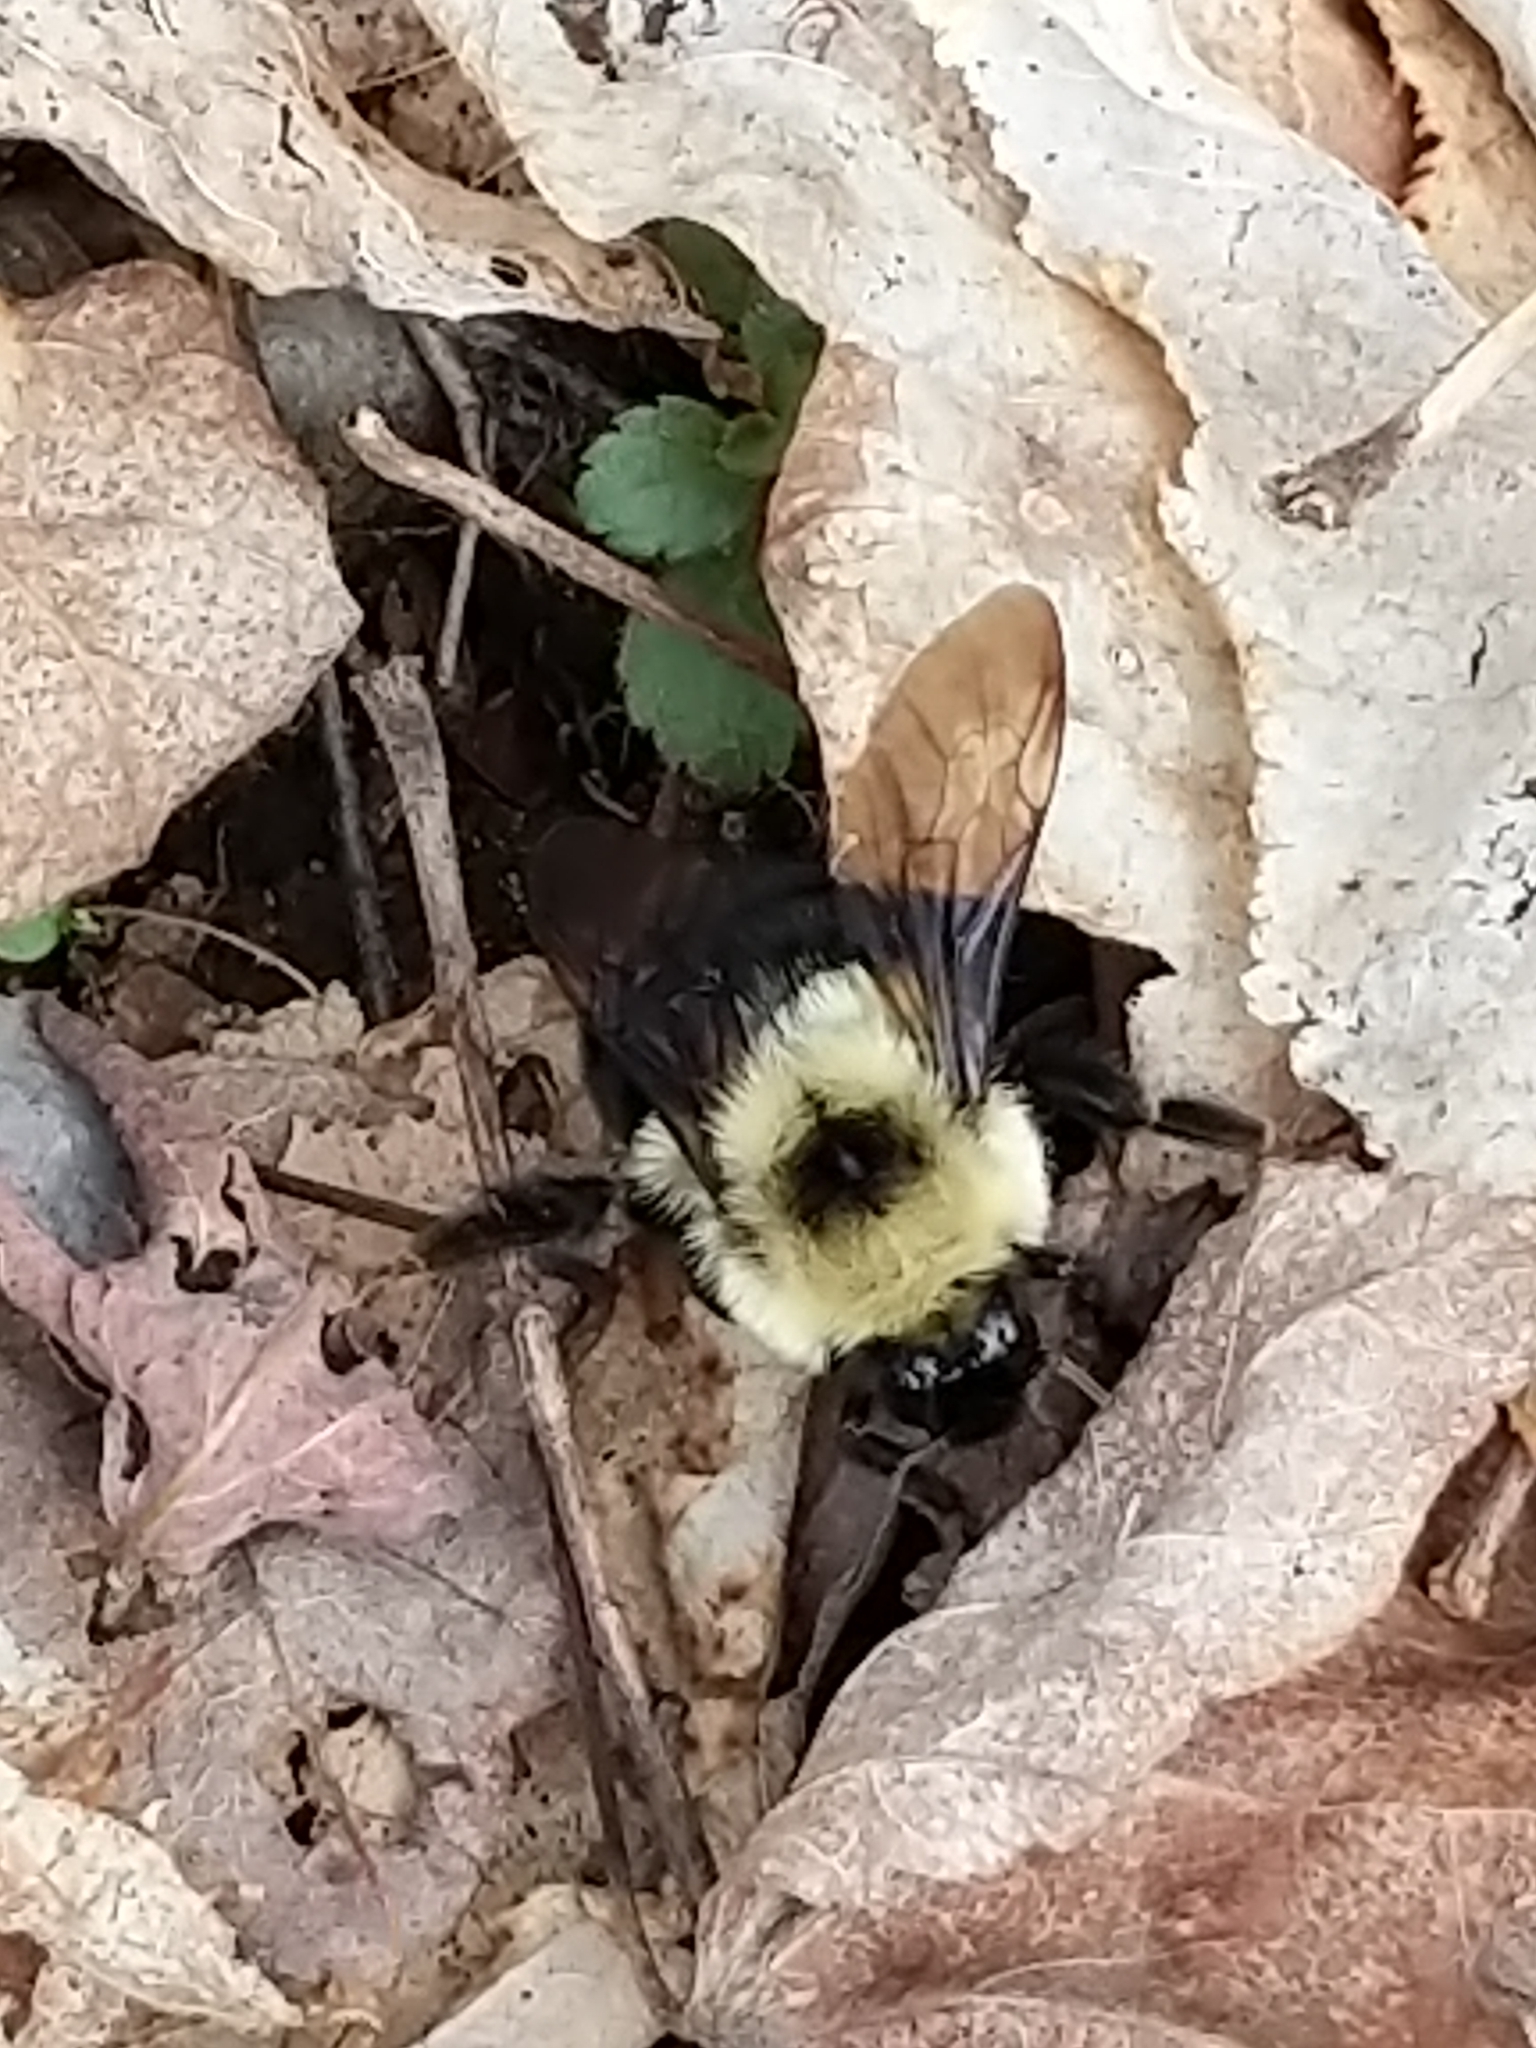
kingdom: Animalia
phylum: Arthropoda
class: Insecta
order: Hymenoptera
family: Apidae
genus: Bombus
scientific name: Bombus bimaculatus
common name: Two-spotted bumble bee
